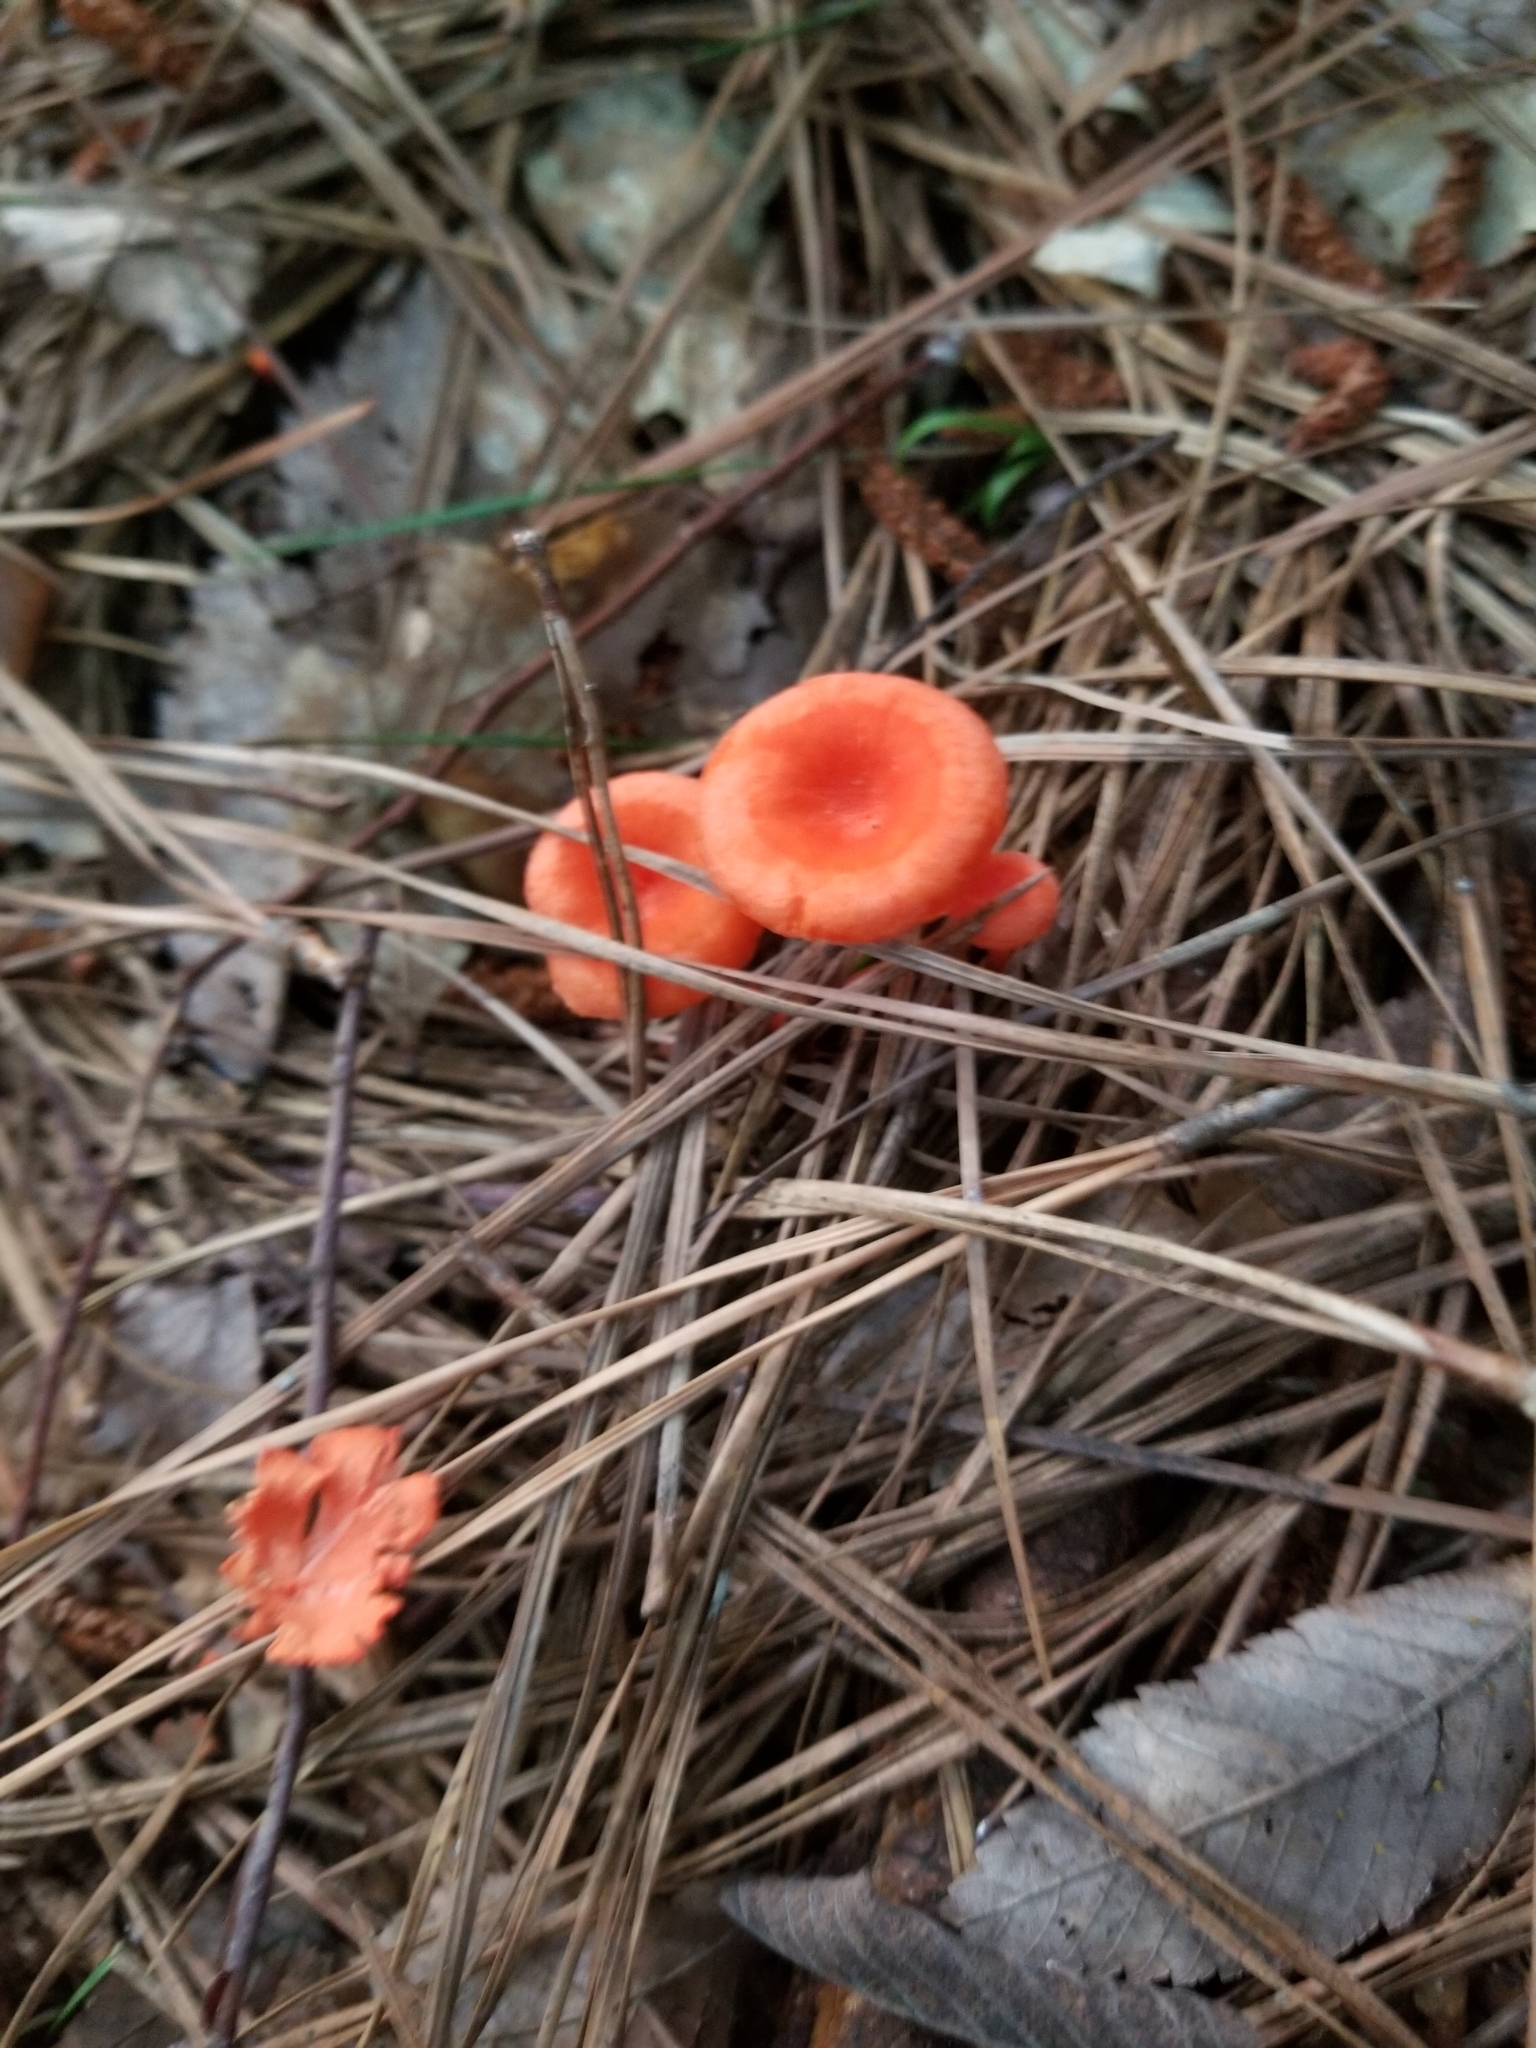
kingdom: Fungi
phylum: Basidiomycota
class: Agaricomycetes
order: Cantharellales
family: Hydnaceae
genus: Cantharellus
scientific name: Cantharellus cinnabarinus
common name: Cinnabar chanterelle
